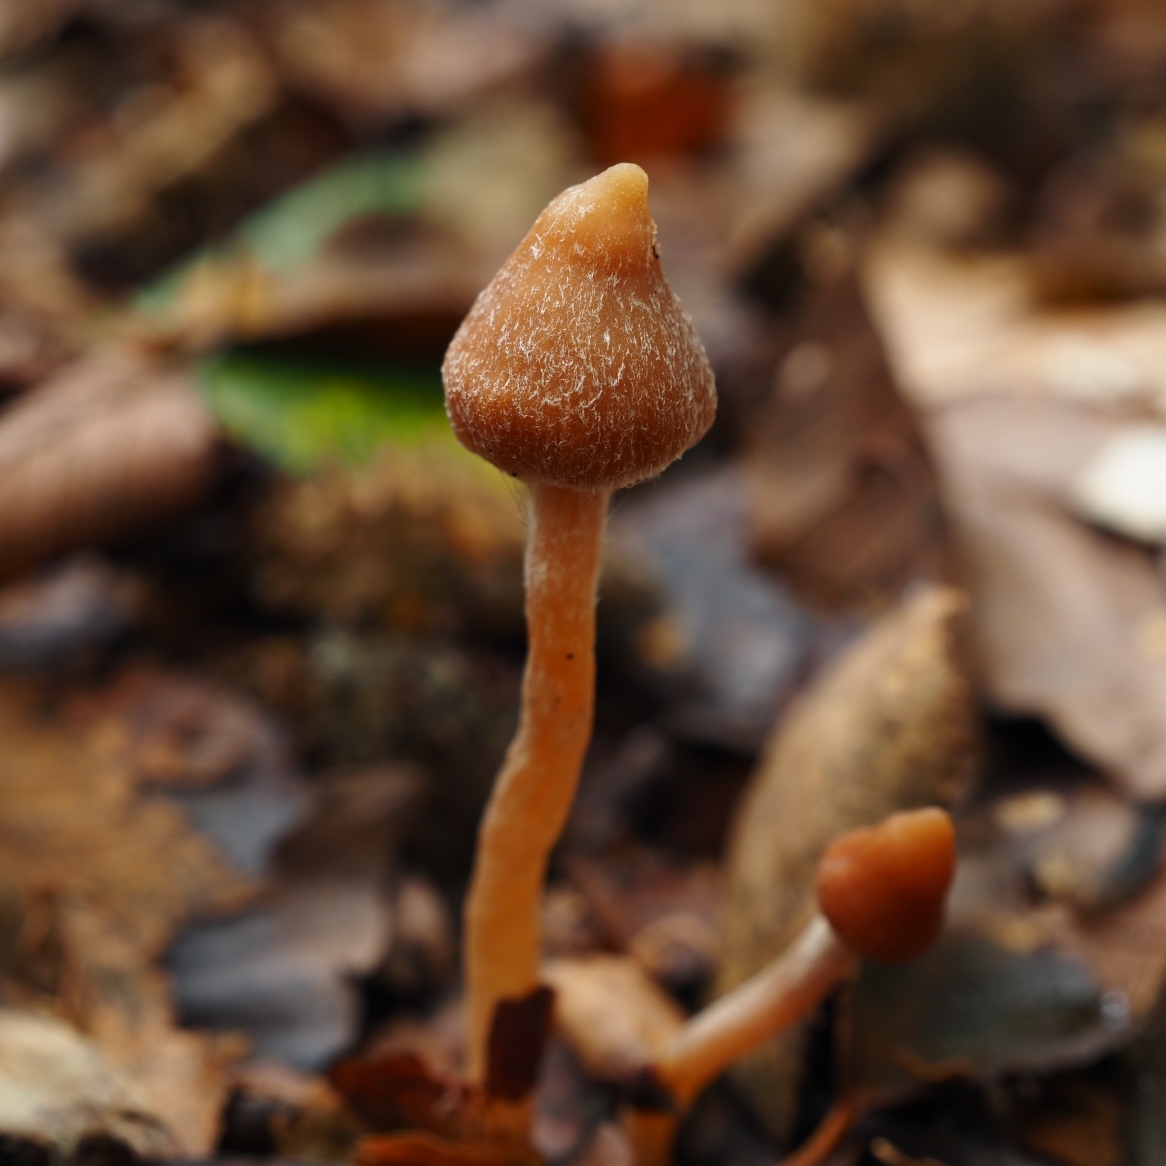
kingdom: Fungi
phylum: Basidiomycota
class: Agaricomycetes
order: Agaricales
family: Cortinariaceae
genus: Cortinarius
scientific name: Cortinarius acutus
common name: Peaked webcap
